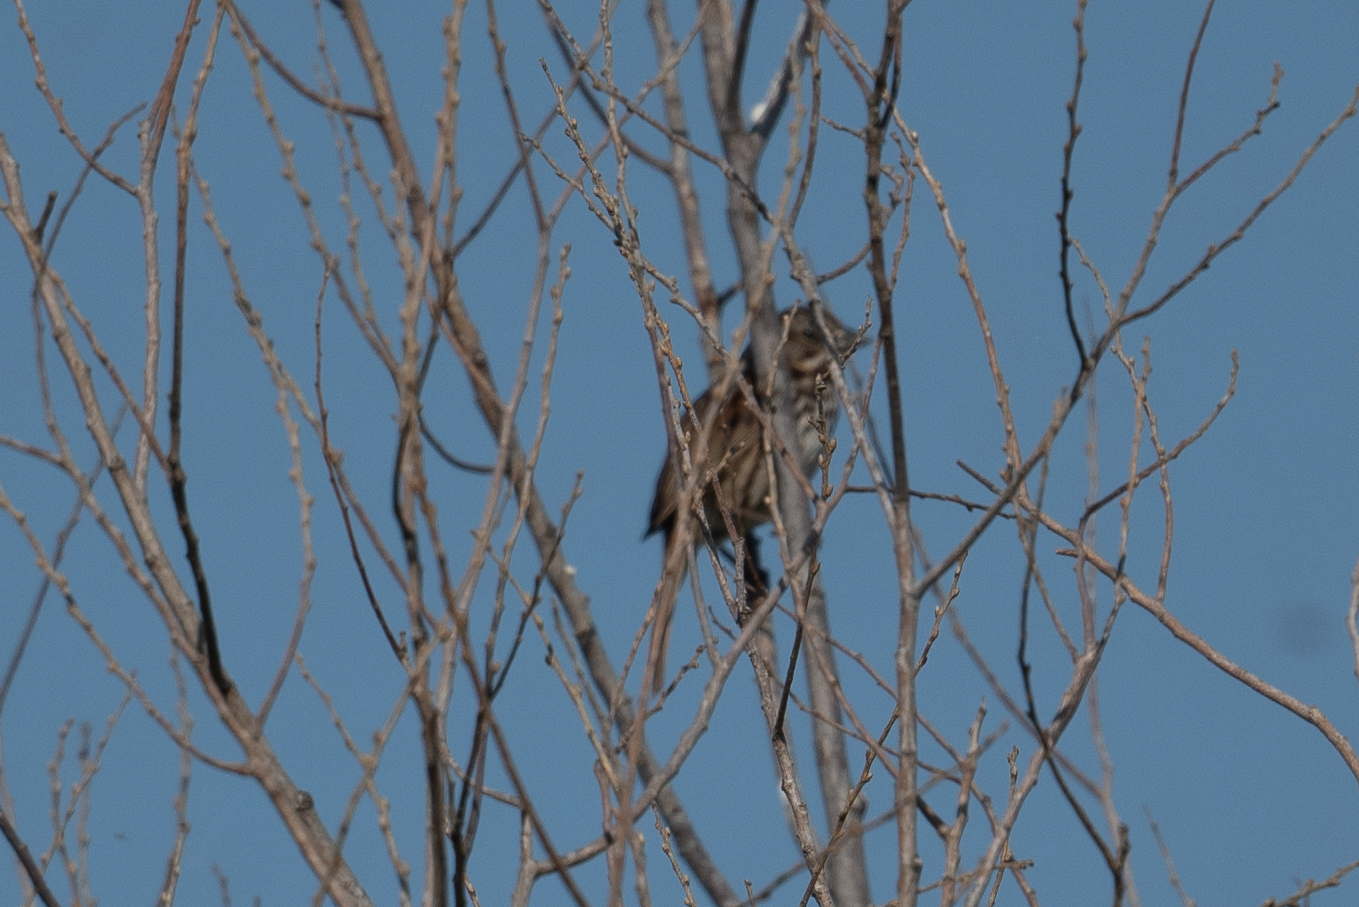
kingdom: Animalia
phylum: Chordata
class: Aves
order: Passeriformes
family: Passerellidae
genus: Melospiza
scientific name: Melospiza melodia
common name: Song sparrow
